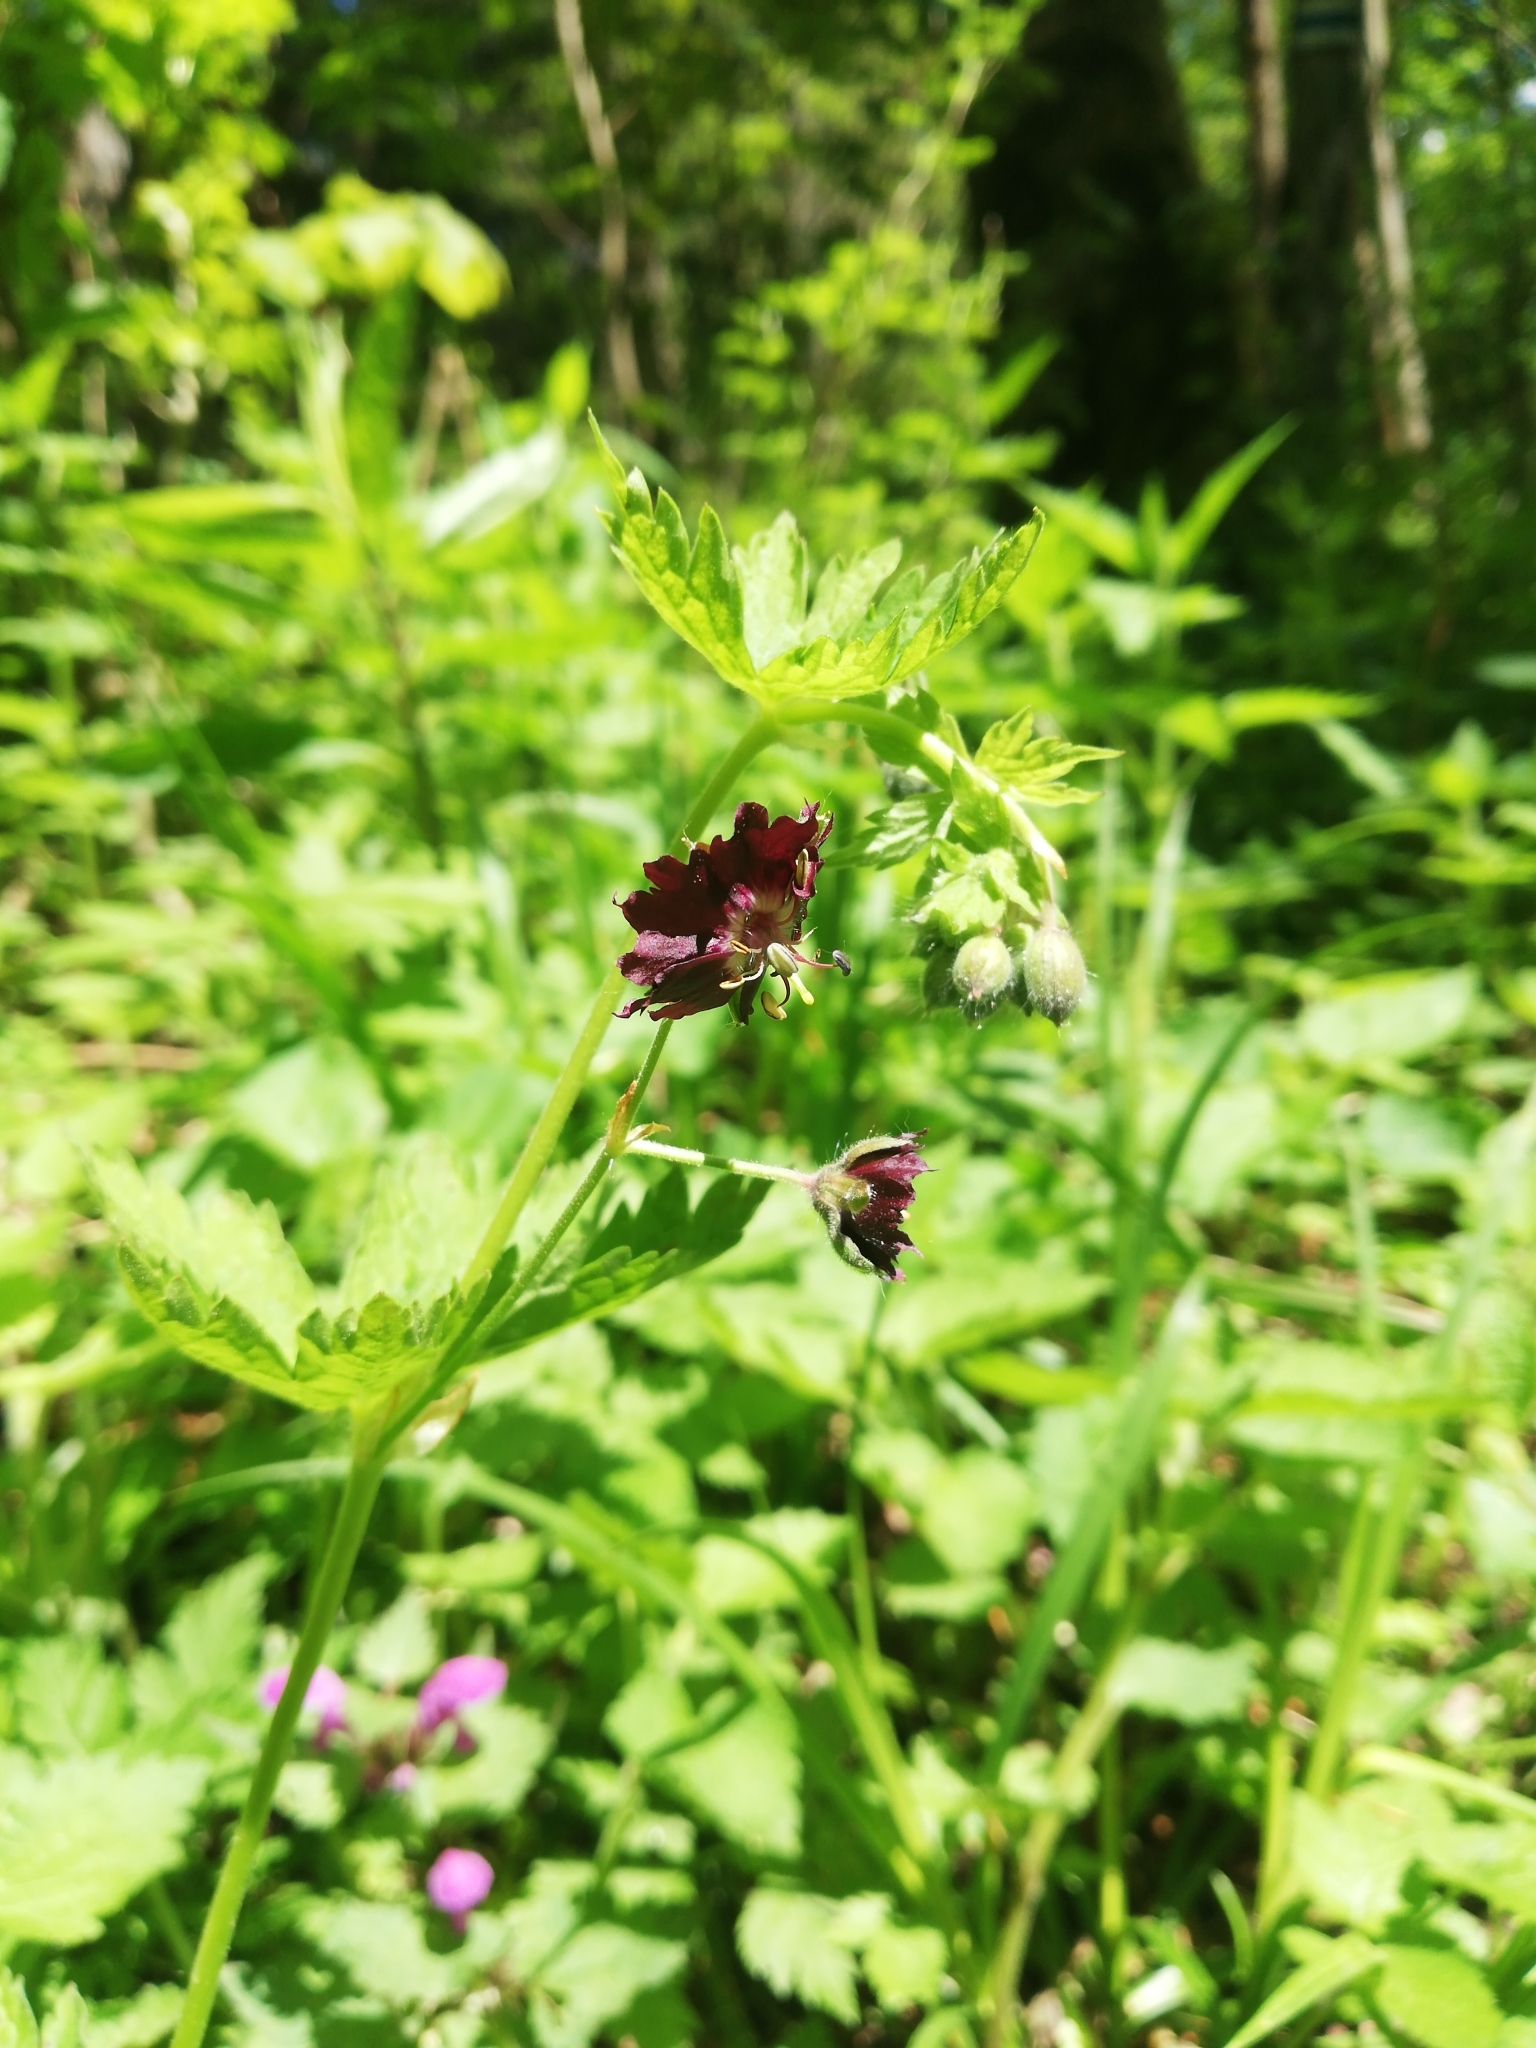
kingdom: Plantae
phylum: Tracheophyta
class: Magnoliopsida
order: Geraniales
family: Geraniaceae
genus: Geranium
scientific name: Geranium phaeum
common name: Dusky crane's-bill
